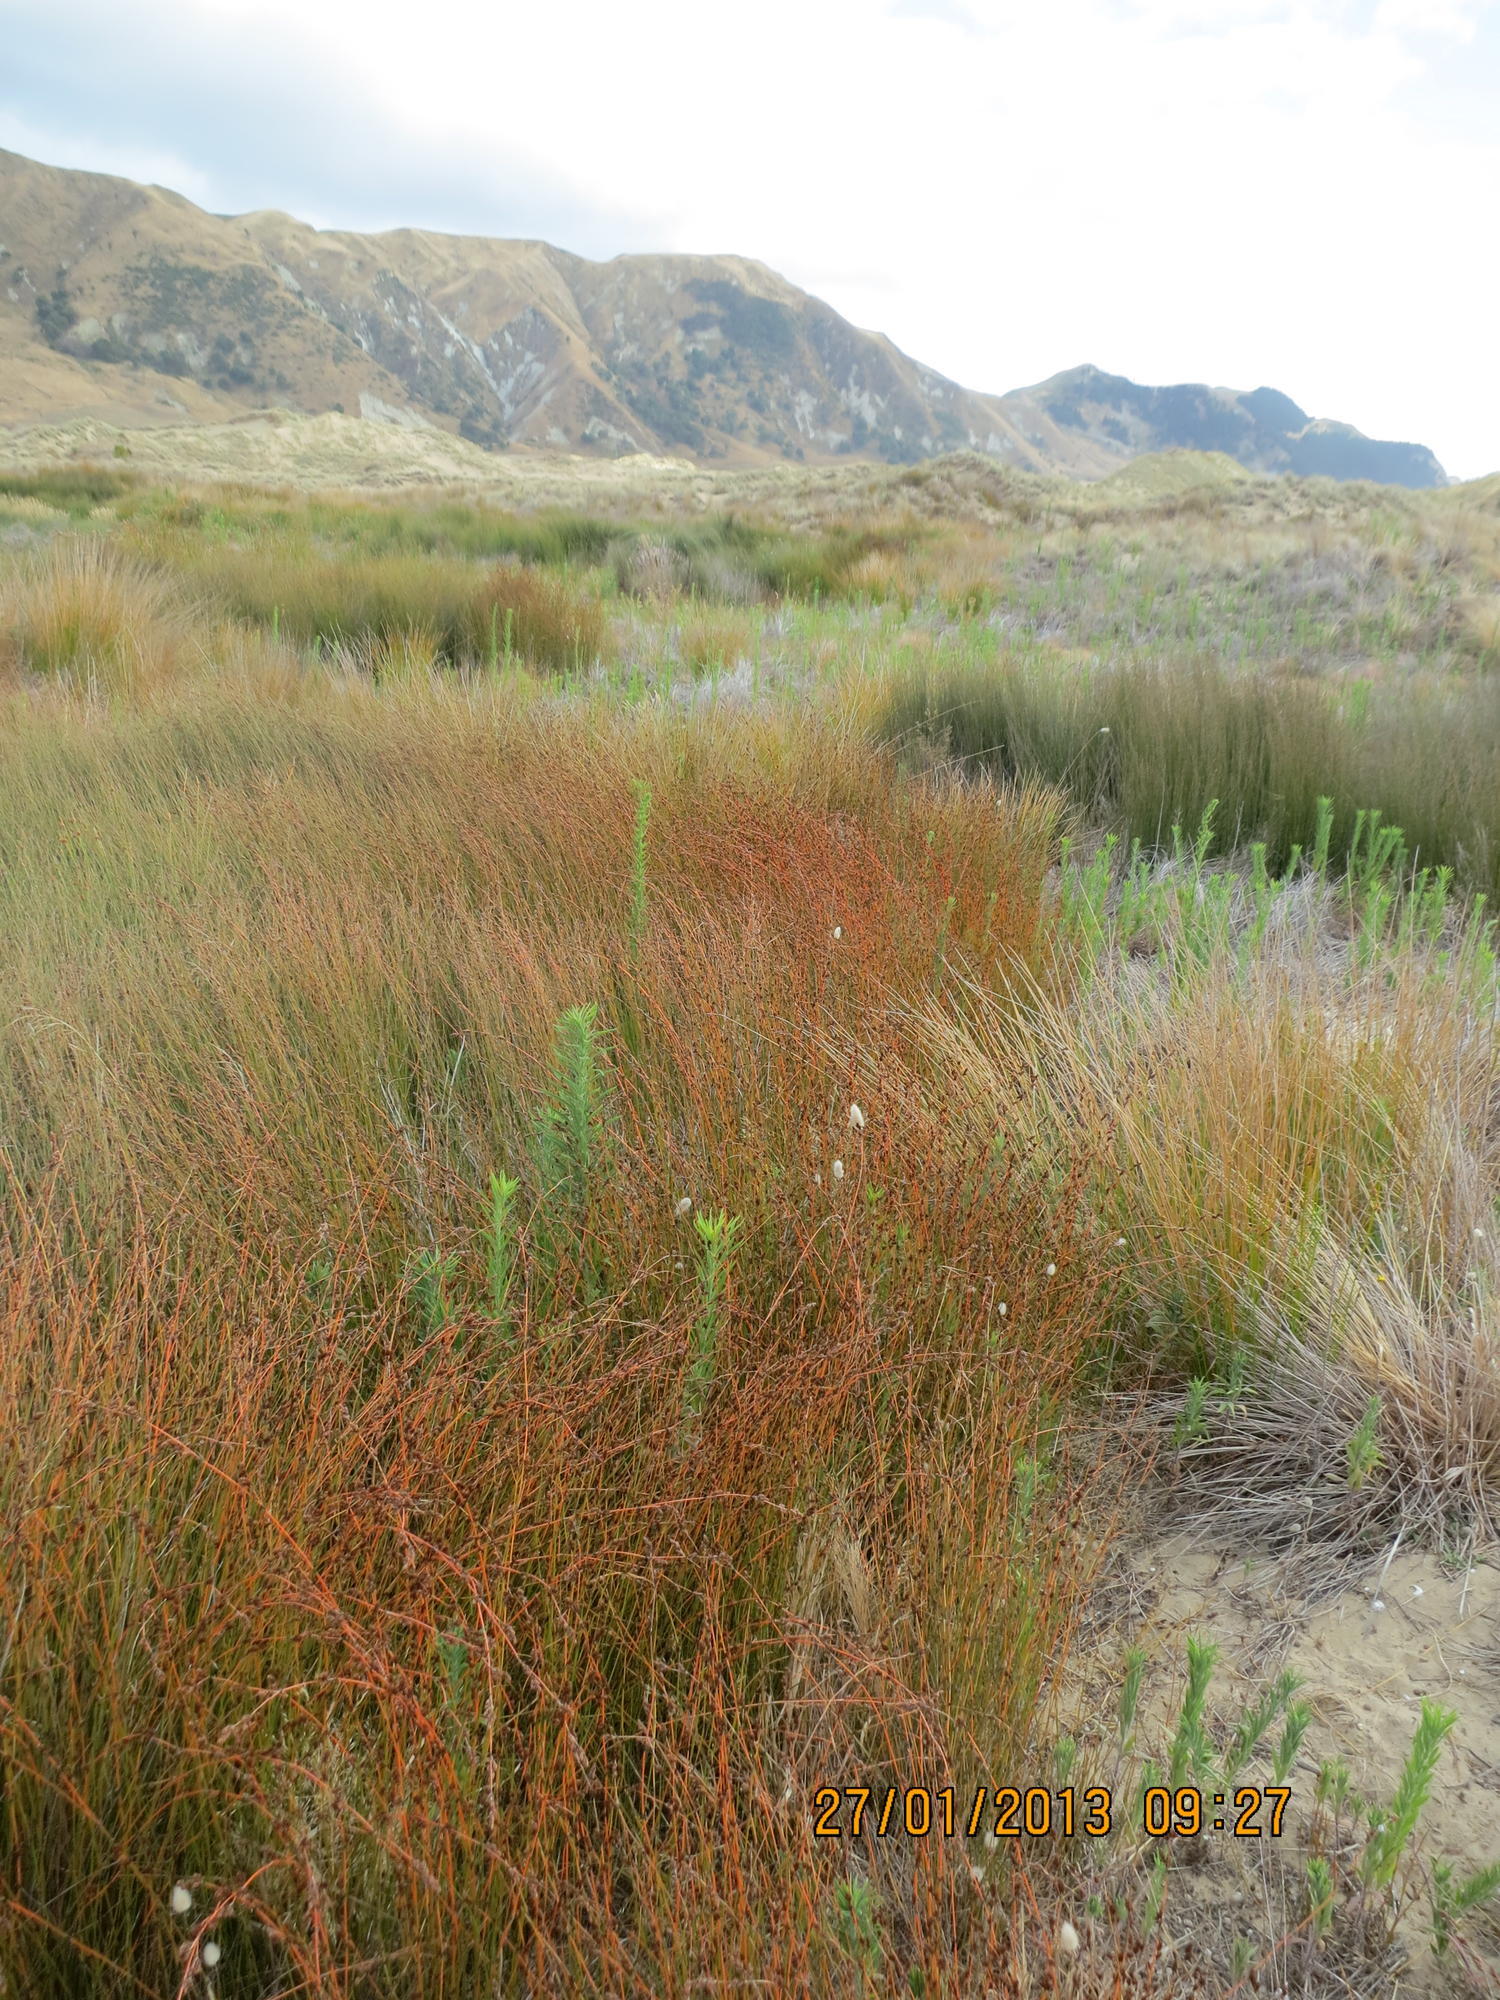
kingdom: Plantae
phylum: Tracheophyta
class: Liliopsida
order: Poales
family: Restionaceae
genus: Apodasmia
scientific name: Apodasmia similis
